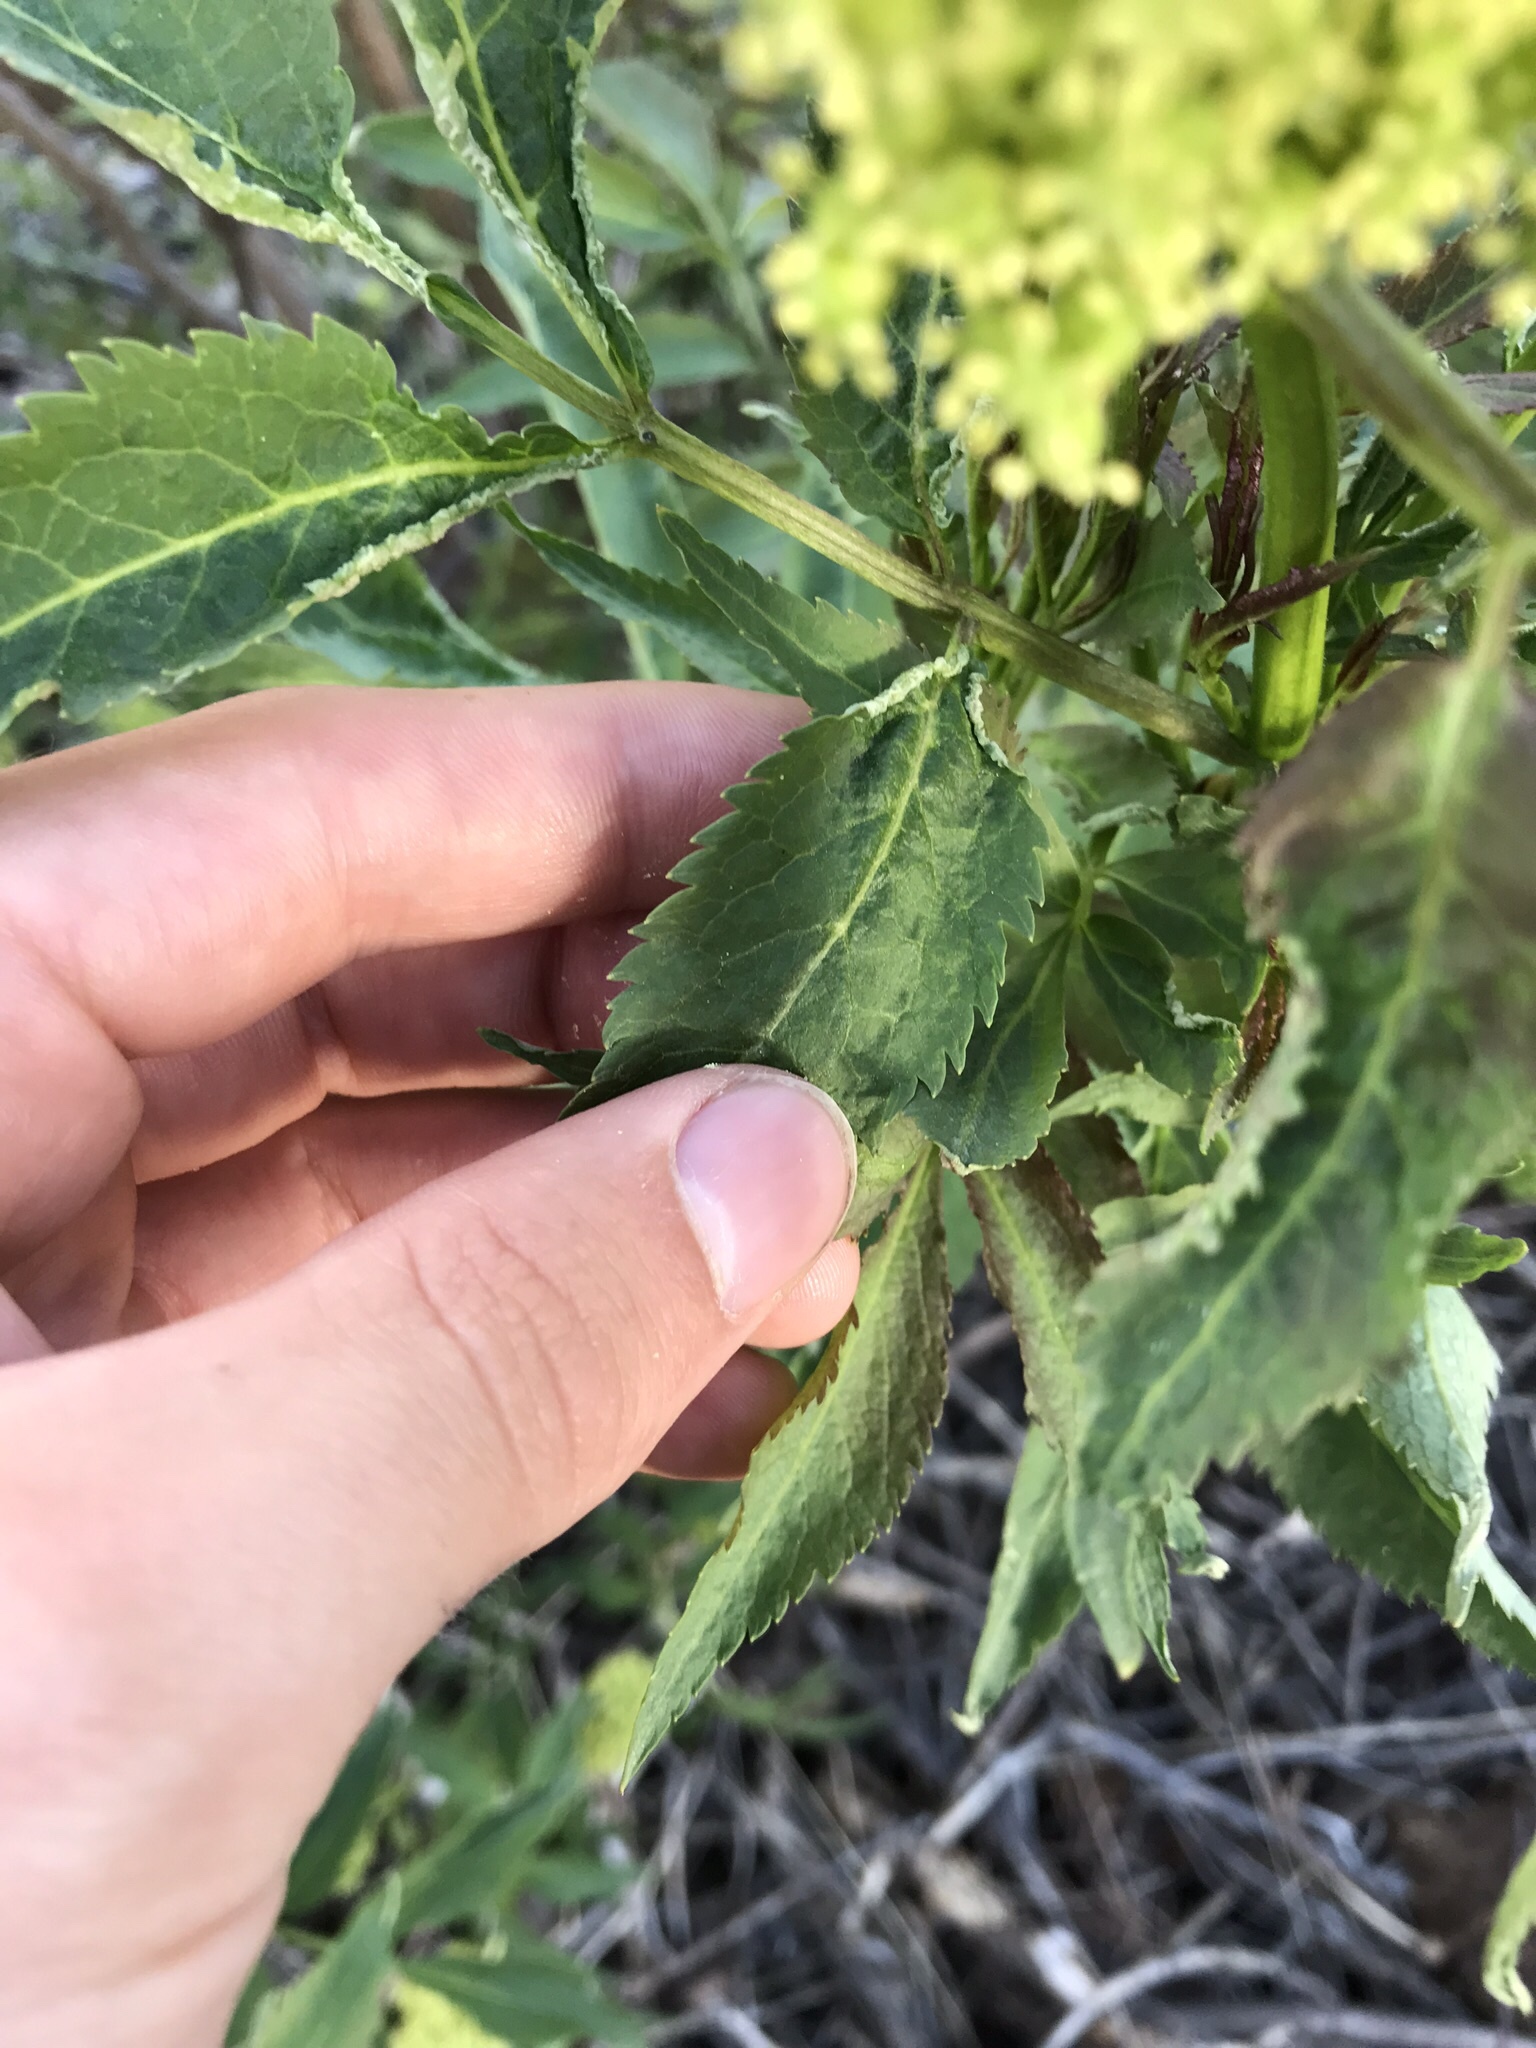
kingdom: Plantae
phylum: Tracheophyta
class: Magnoliopsida
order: Dipsacales
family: Viburnaceae
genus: Sambucus
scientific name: Sambucus racemosa
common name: Red-berried elder
